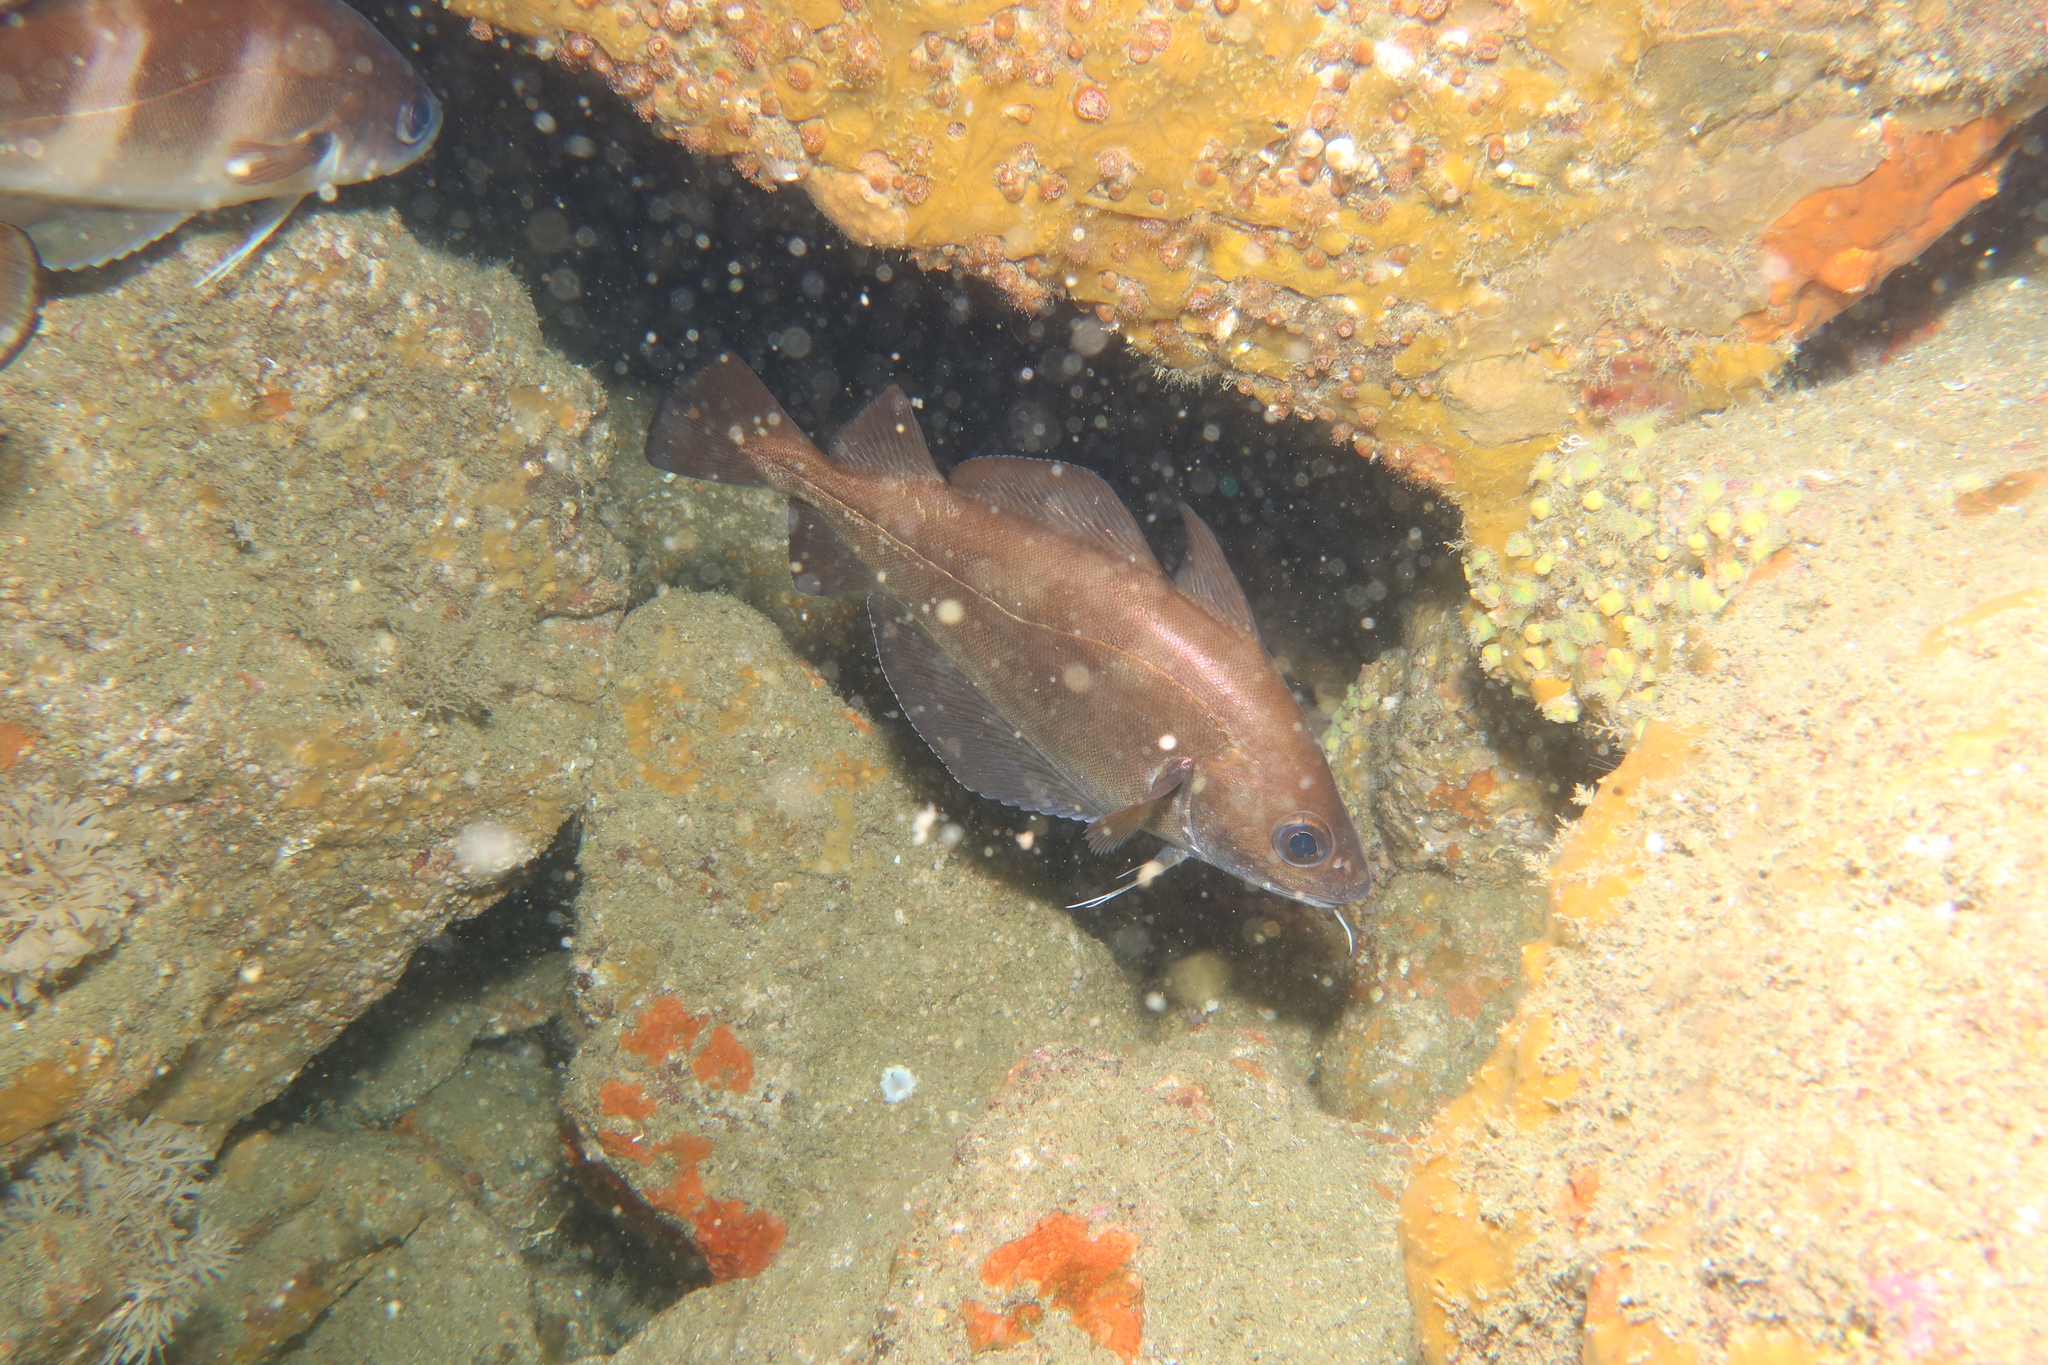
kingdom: Animalia
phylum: Chordata
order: Gadiformes
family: Gadidae
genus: Trisopterus
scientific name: Trisopterus luscus
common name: Bib
